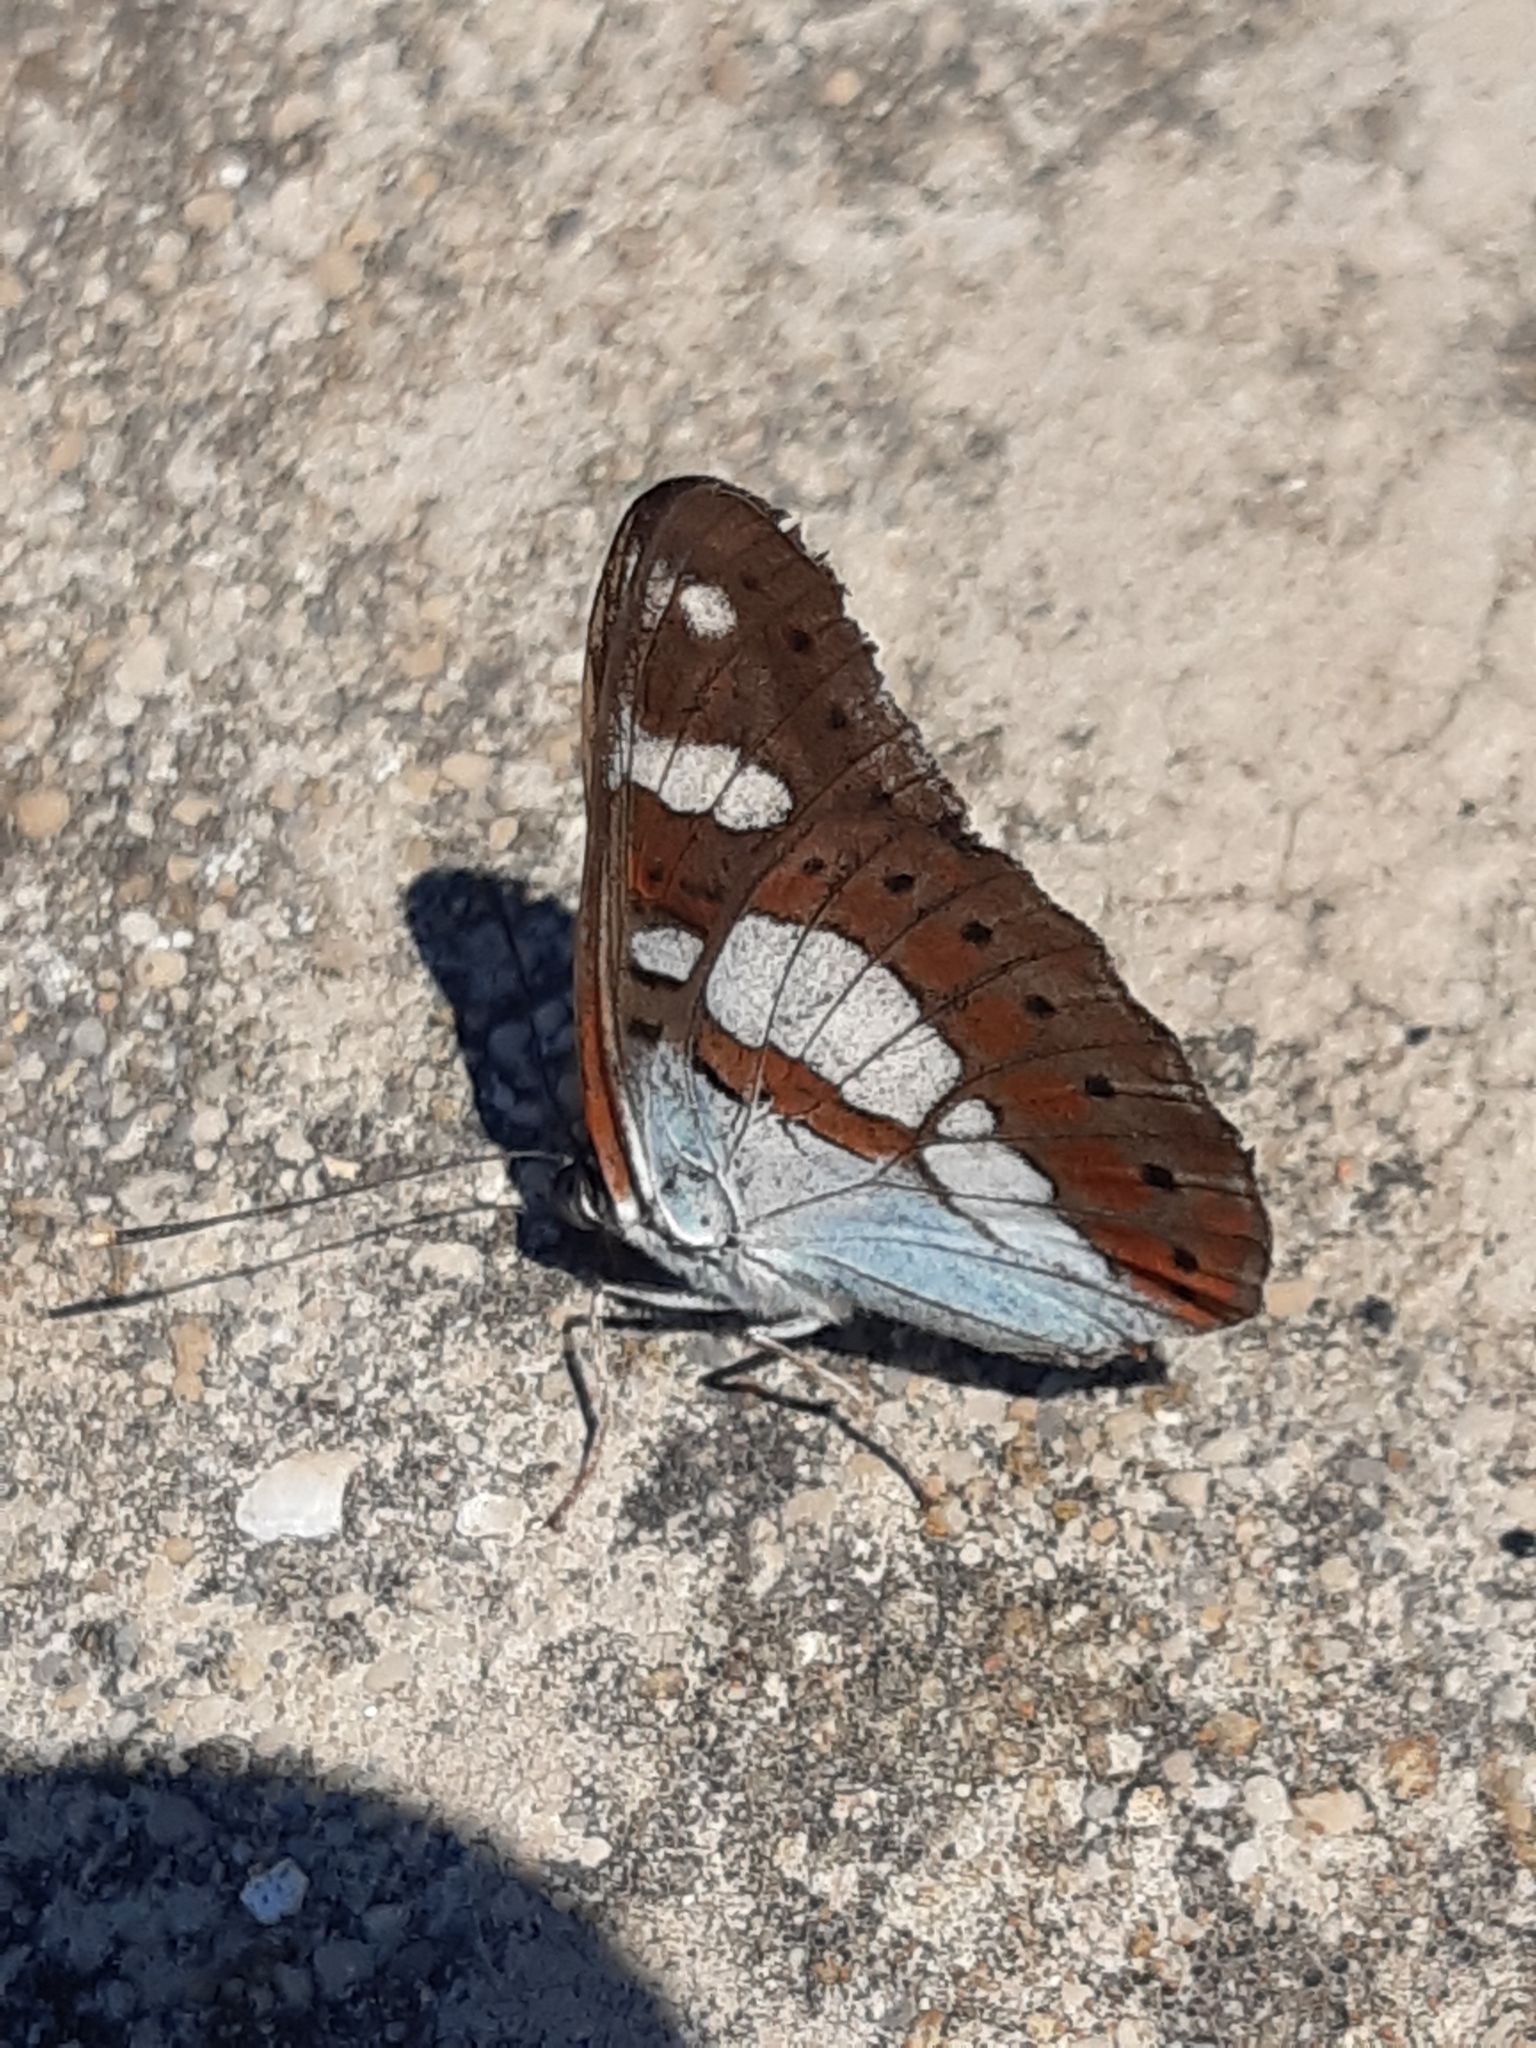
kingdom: Animalia
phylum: Arthropoda
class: Insecta
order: Lepidoptera
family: Nymphalidae
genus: Limenitis
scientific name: Limenitis reducta
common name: Southern white admiral
